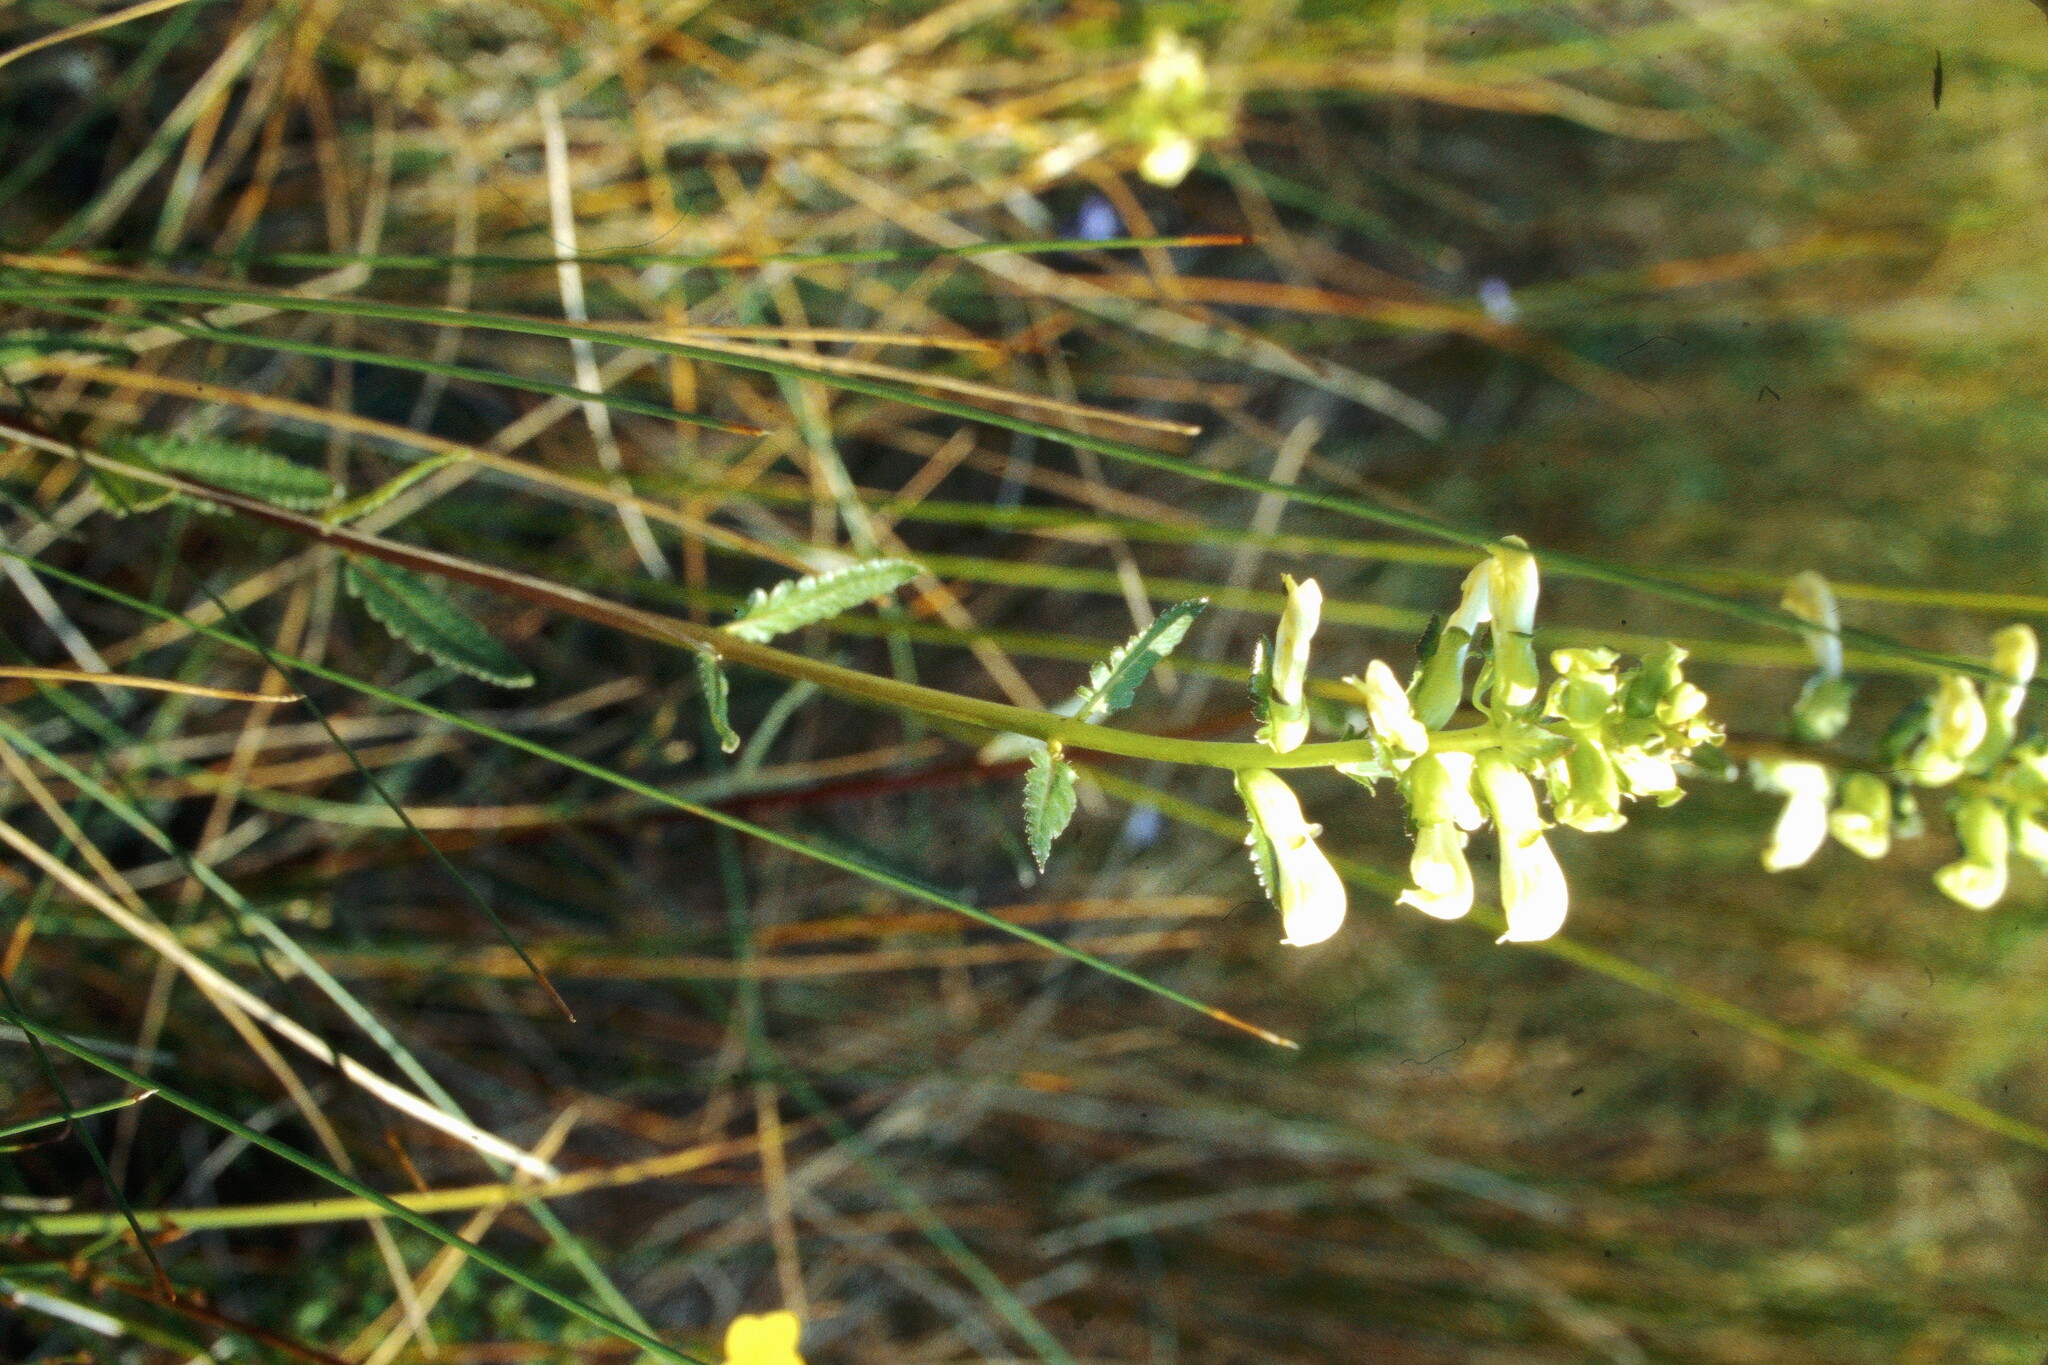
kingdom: Plantae
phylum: Tracheophyta
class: Magnoliopsida
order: Lamiales
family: Orobanchaceae
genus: Pedicularis
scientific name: Pedicularis lanceolata
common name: Swamp lousewort
